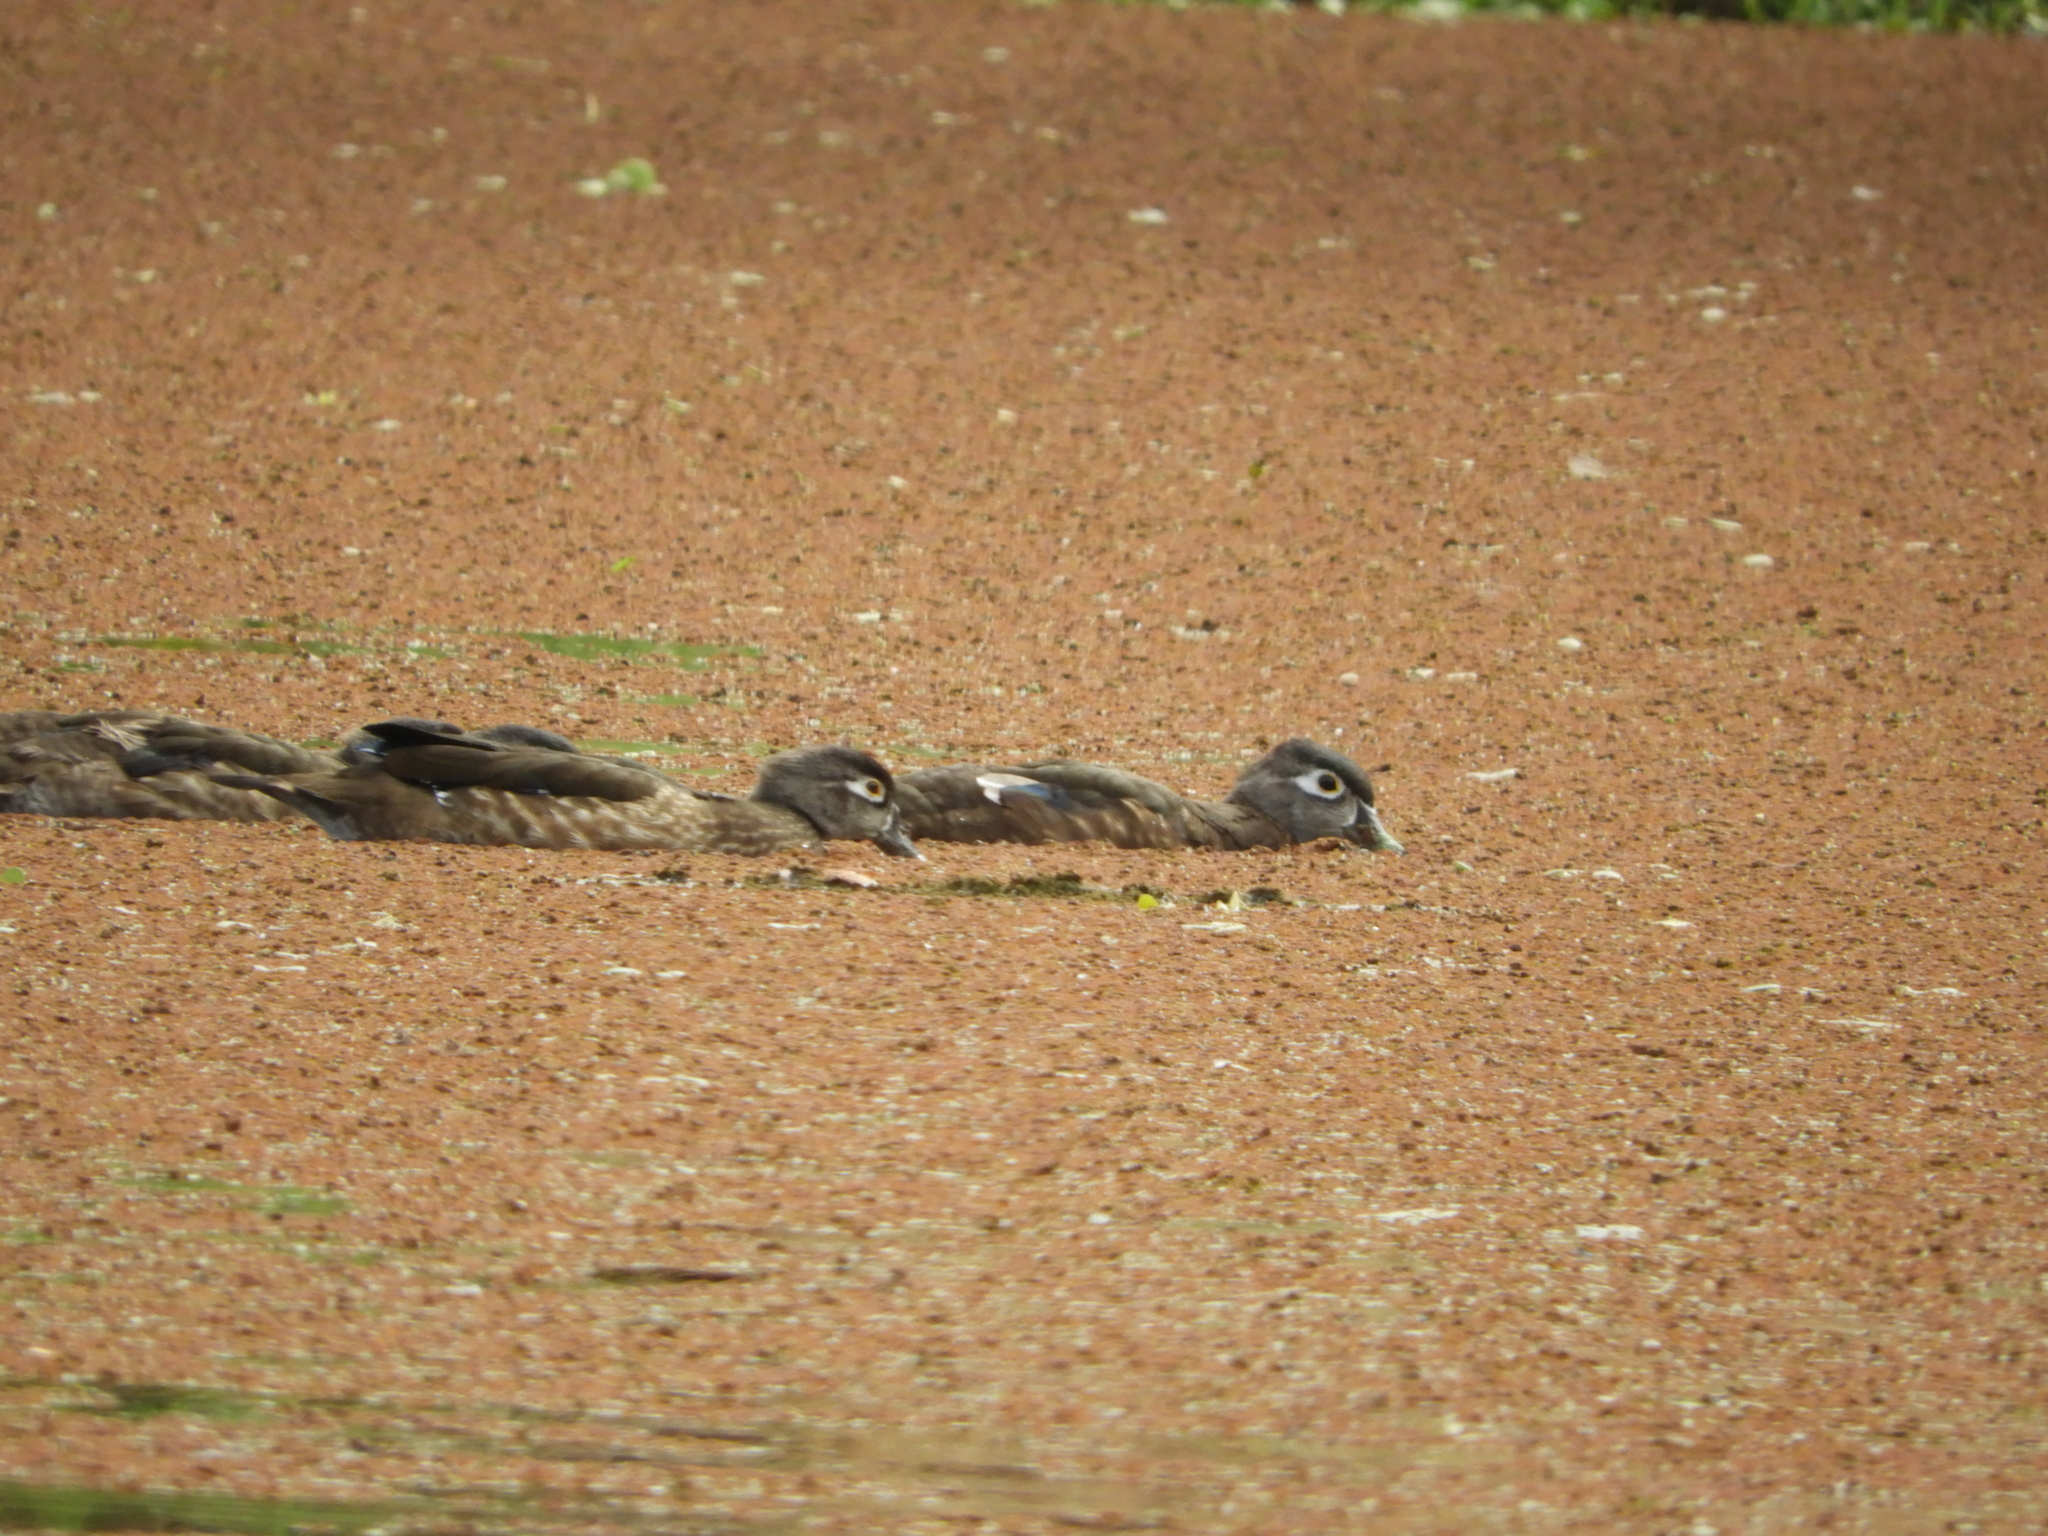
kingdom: Animalia
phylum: Chordata
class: Aves
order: Anseriformes
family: Anatidae
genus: Aix
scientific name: Aix sponsa
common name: Wood duck
